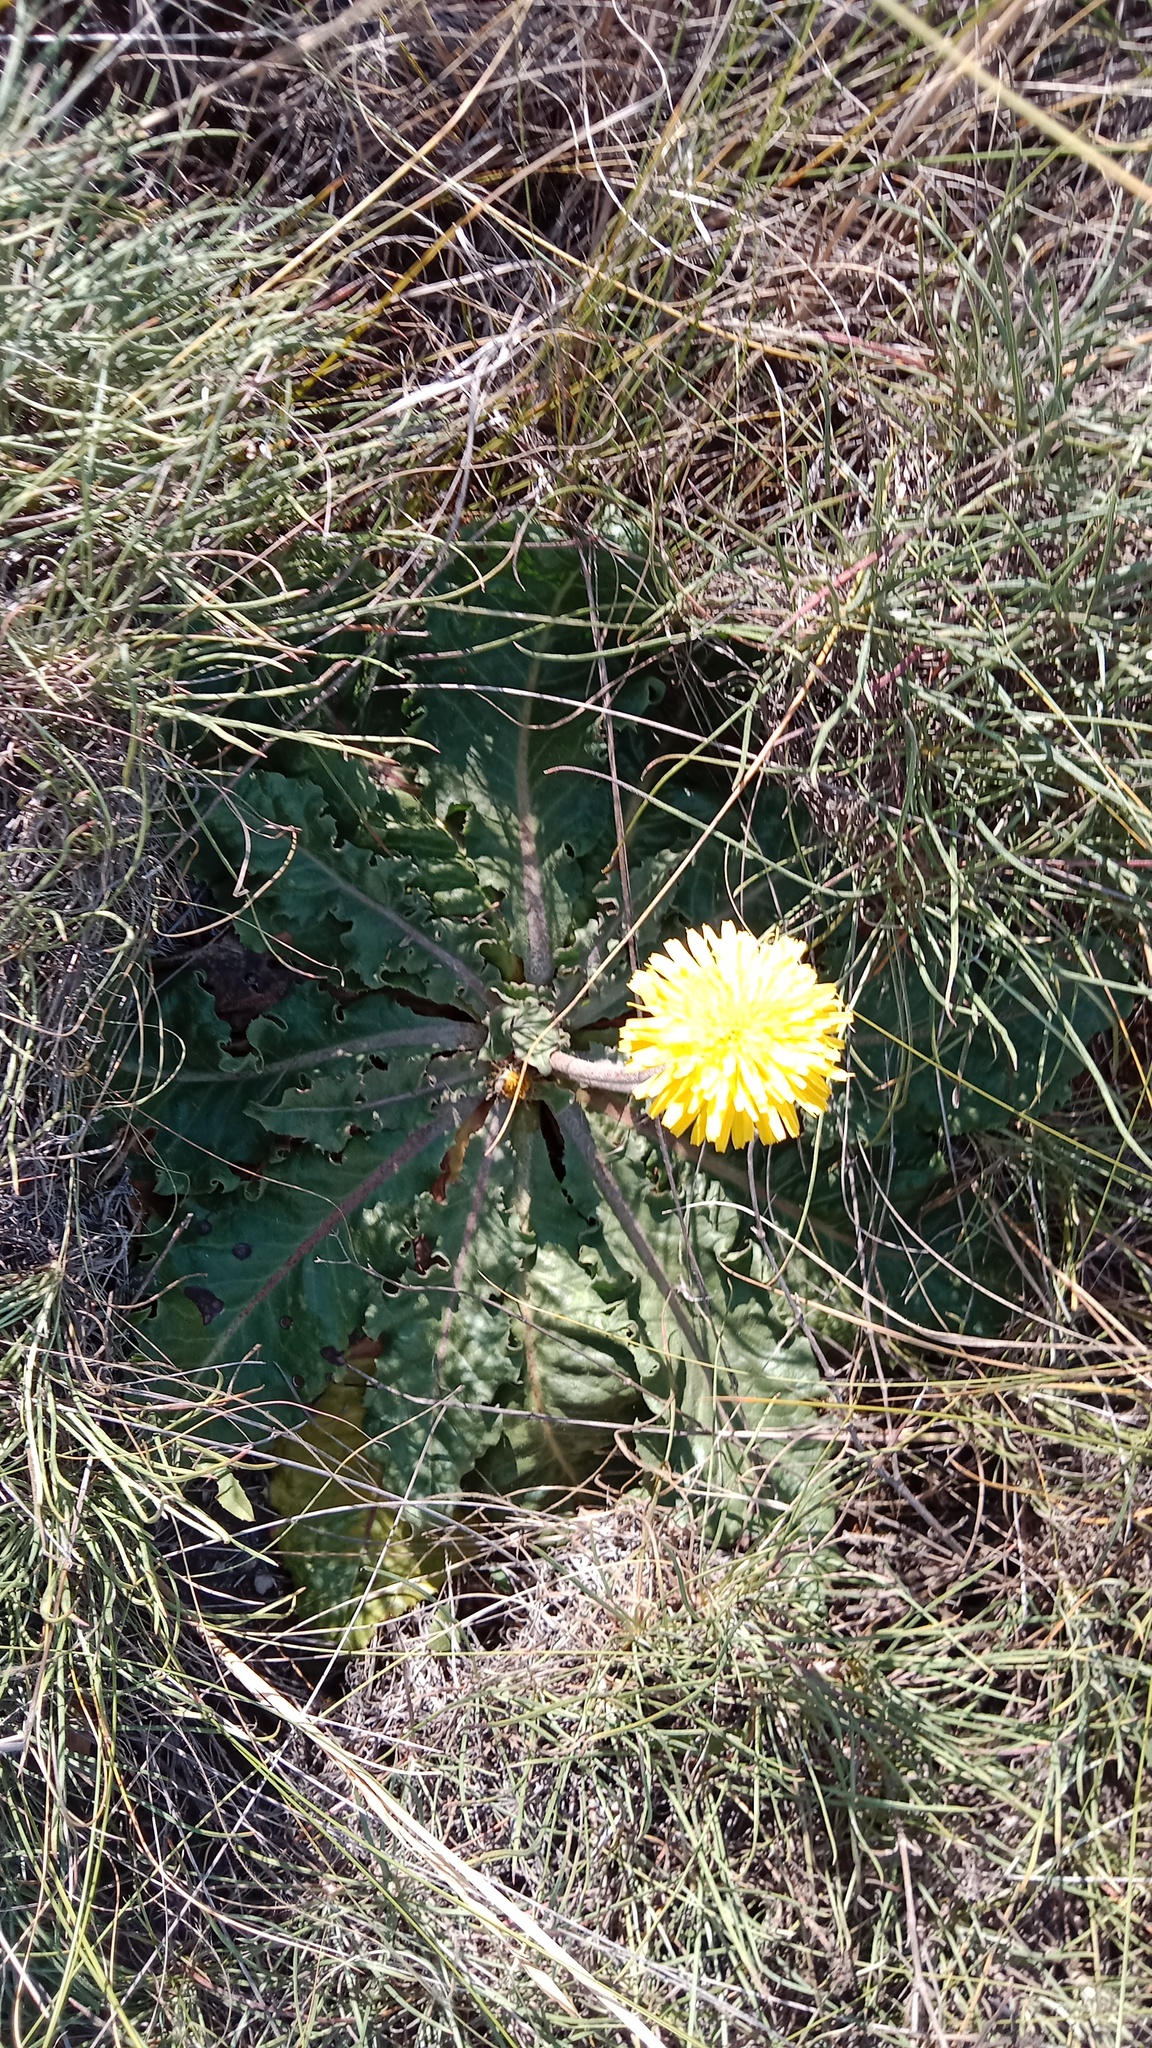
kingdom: Plantae
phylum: Tracheophyta
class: Magnoliopsida
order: Asterales
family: Asteraceae
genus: Taraxacum
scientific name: Taraxacum serotinum
